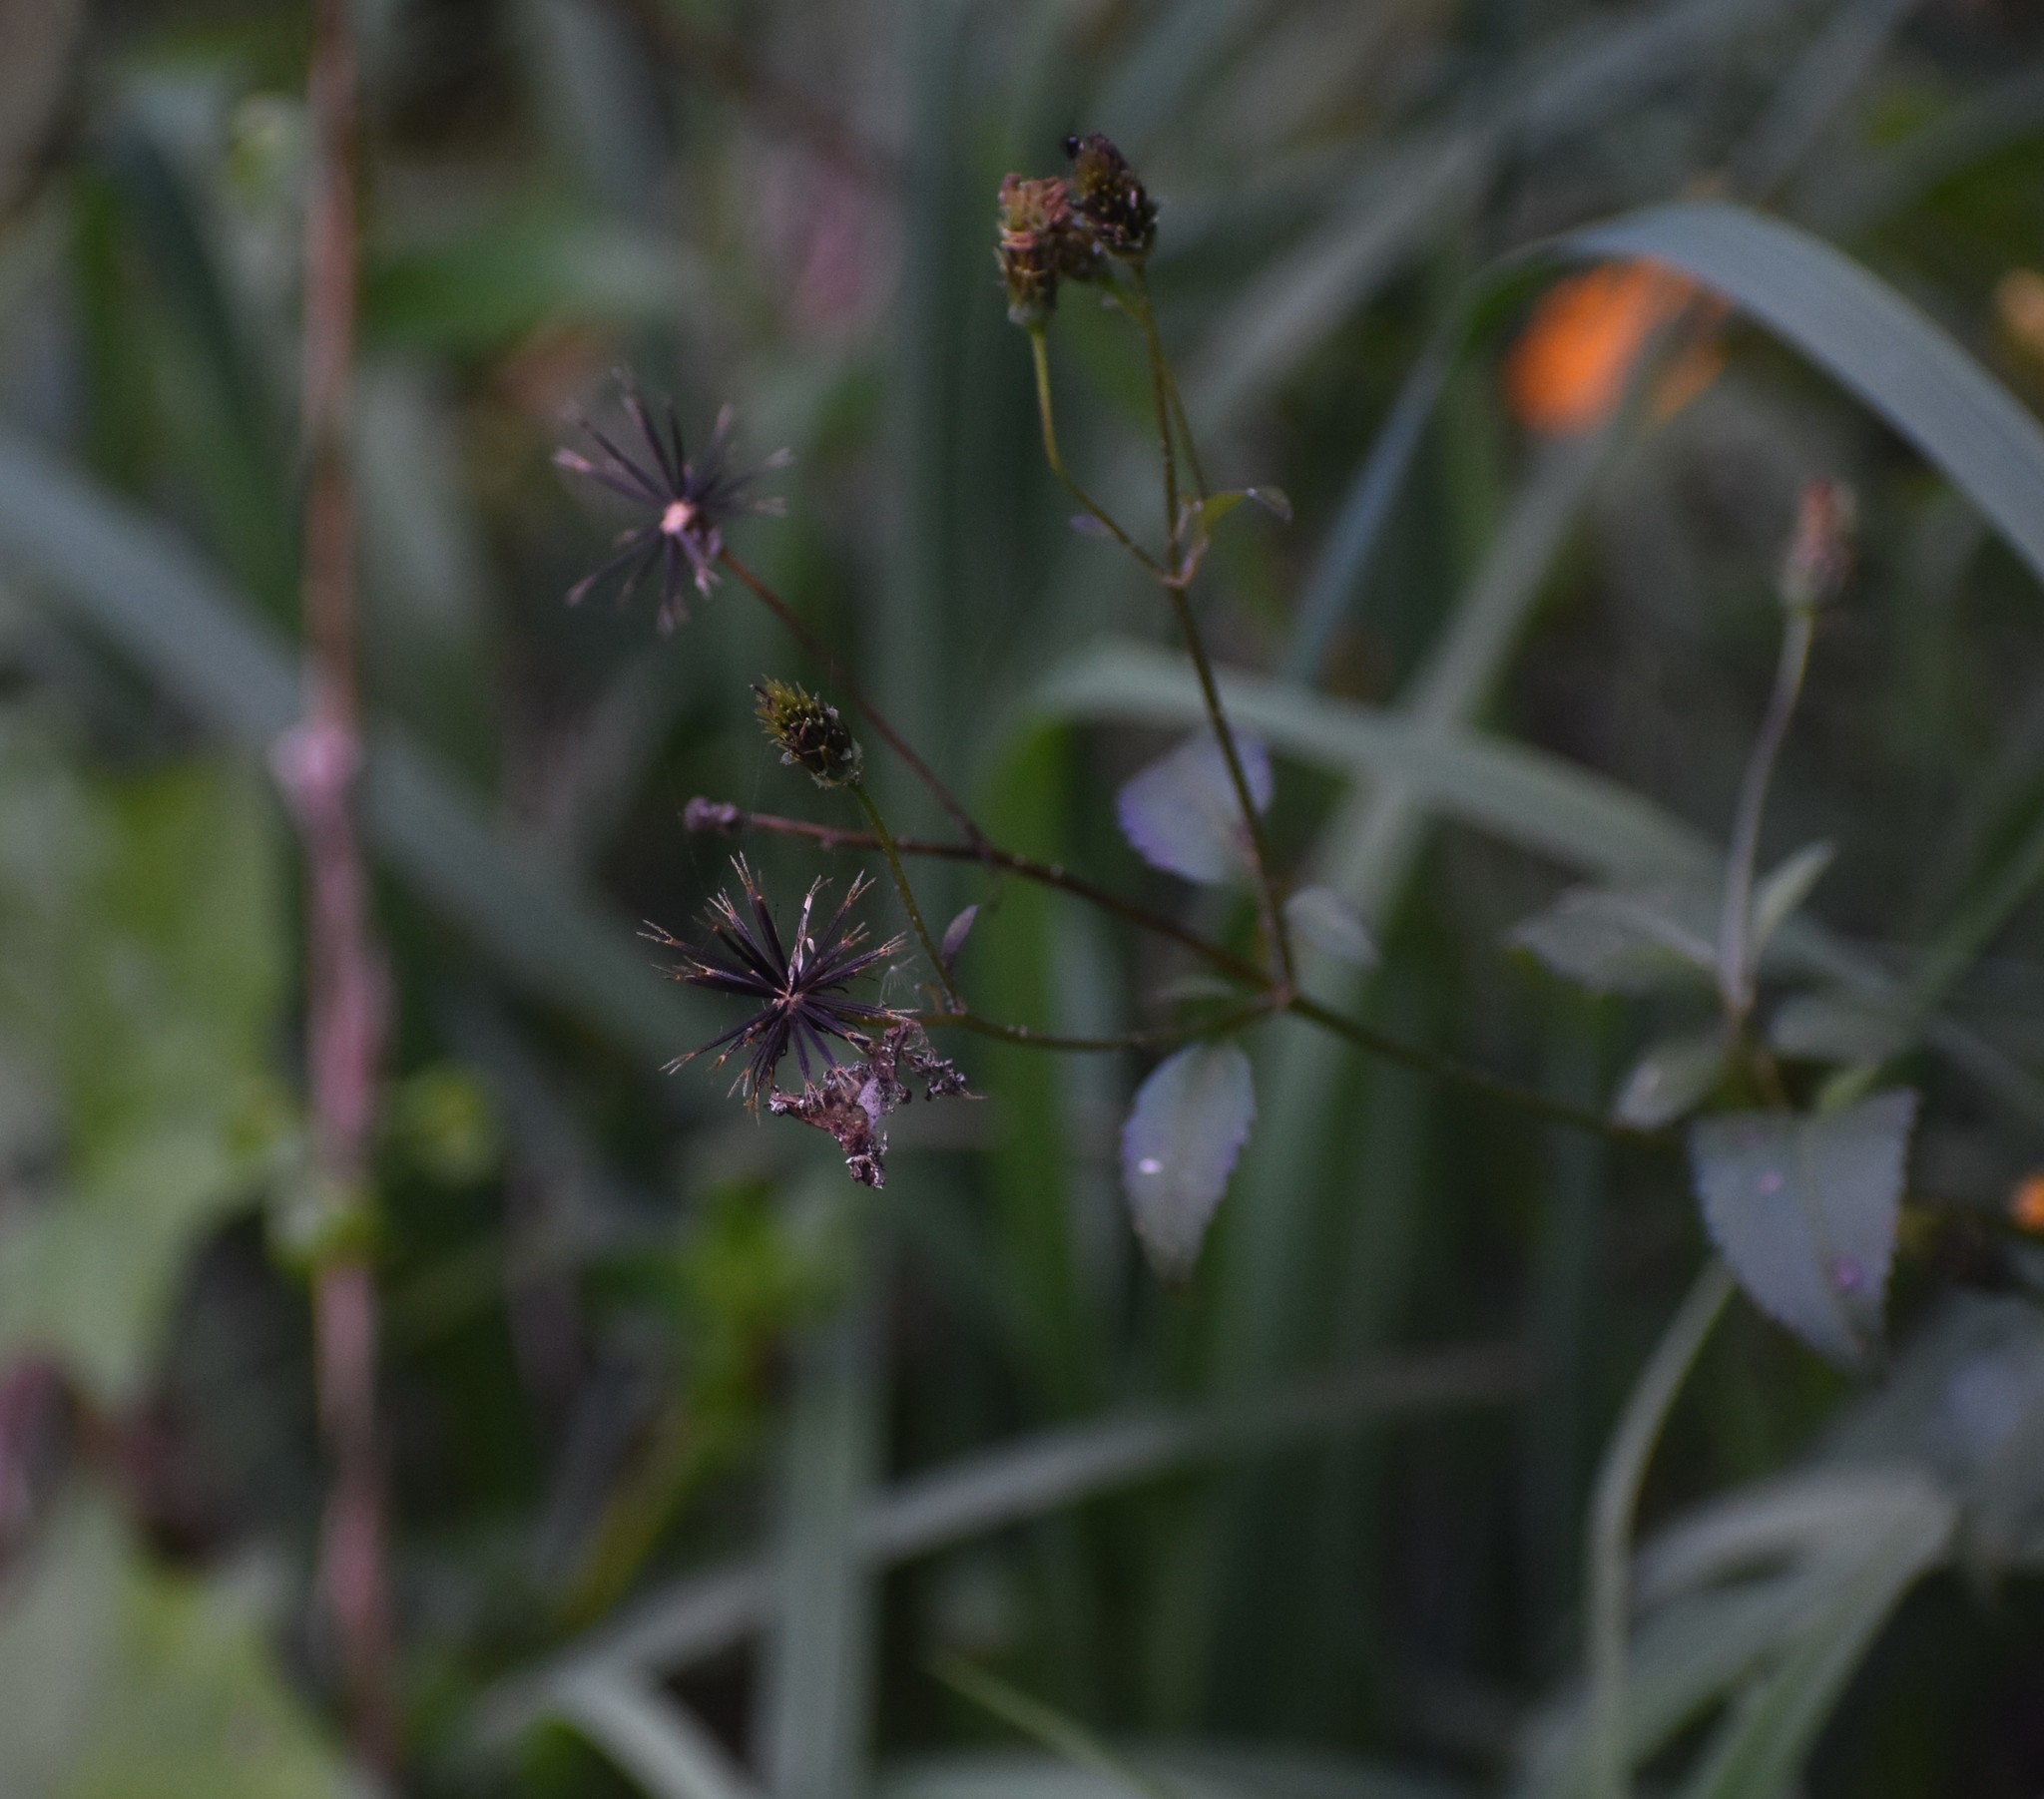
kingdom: Plantae
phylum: Tracheophyta
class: Magnoliopsida
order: Asterales
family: Asteraceae
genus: Bidens
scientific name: Bidens pilosa
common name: Black-jack
